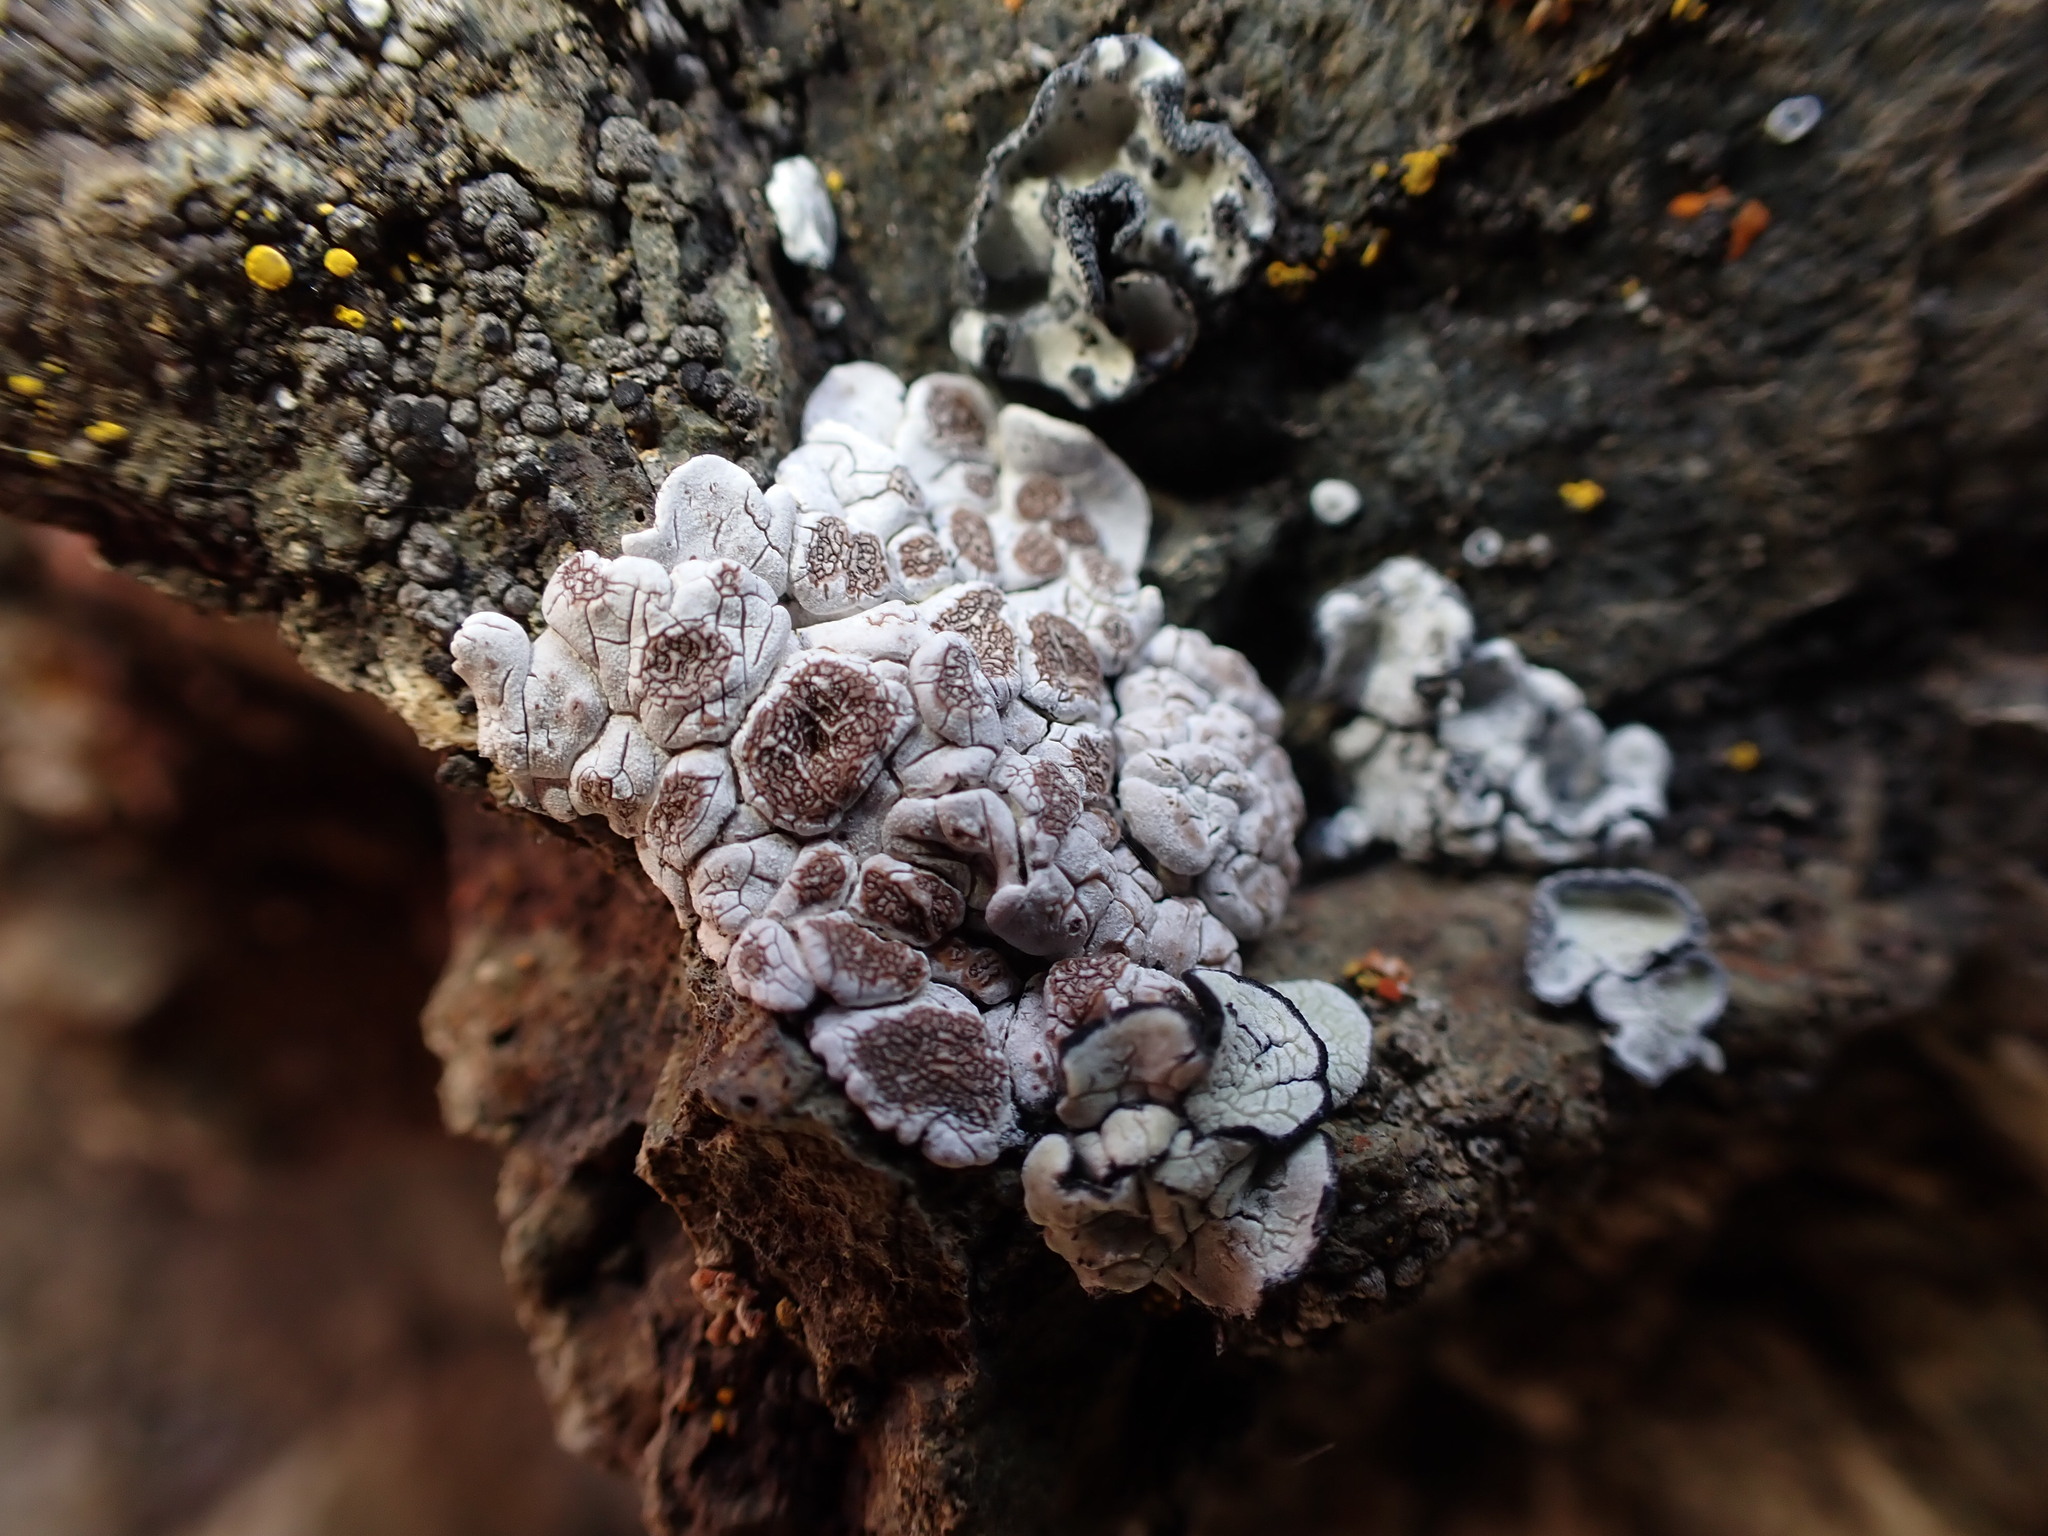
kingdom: Fungi
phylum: Ascomycota
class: Lecanoromycetes
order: Acarosporales
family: Acarosporaceae
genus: Glypholecia
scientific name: Glypholecia scabra
